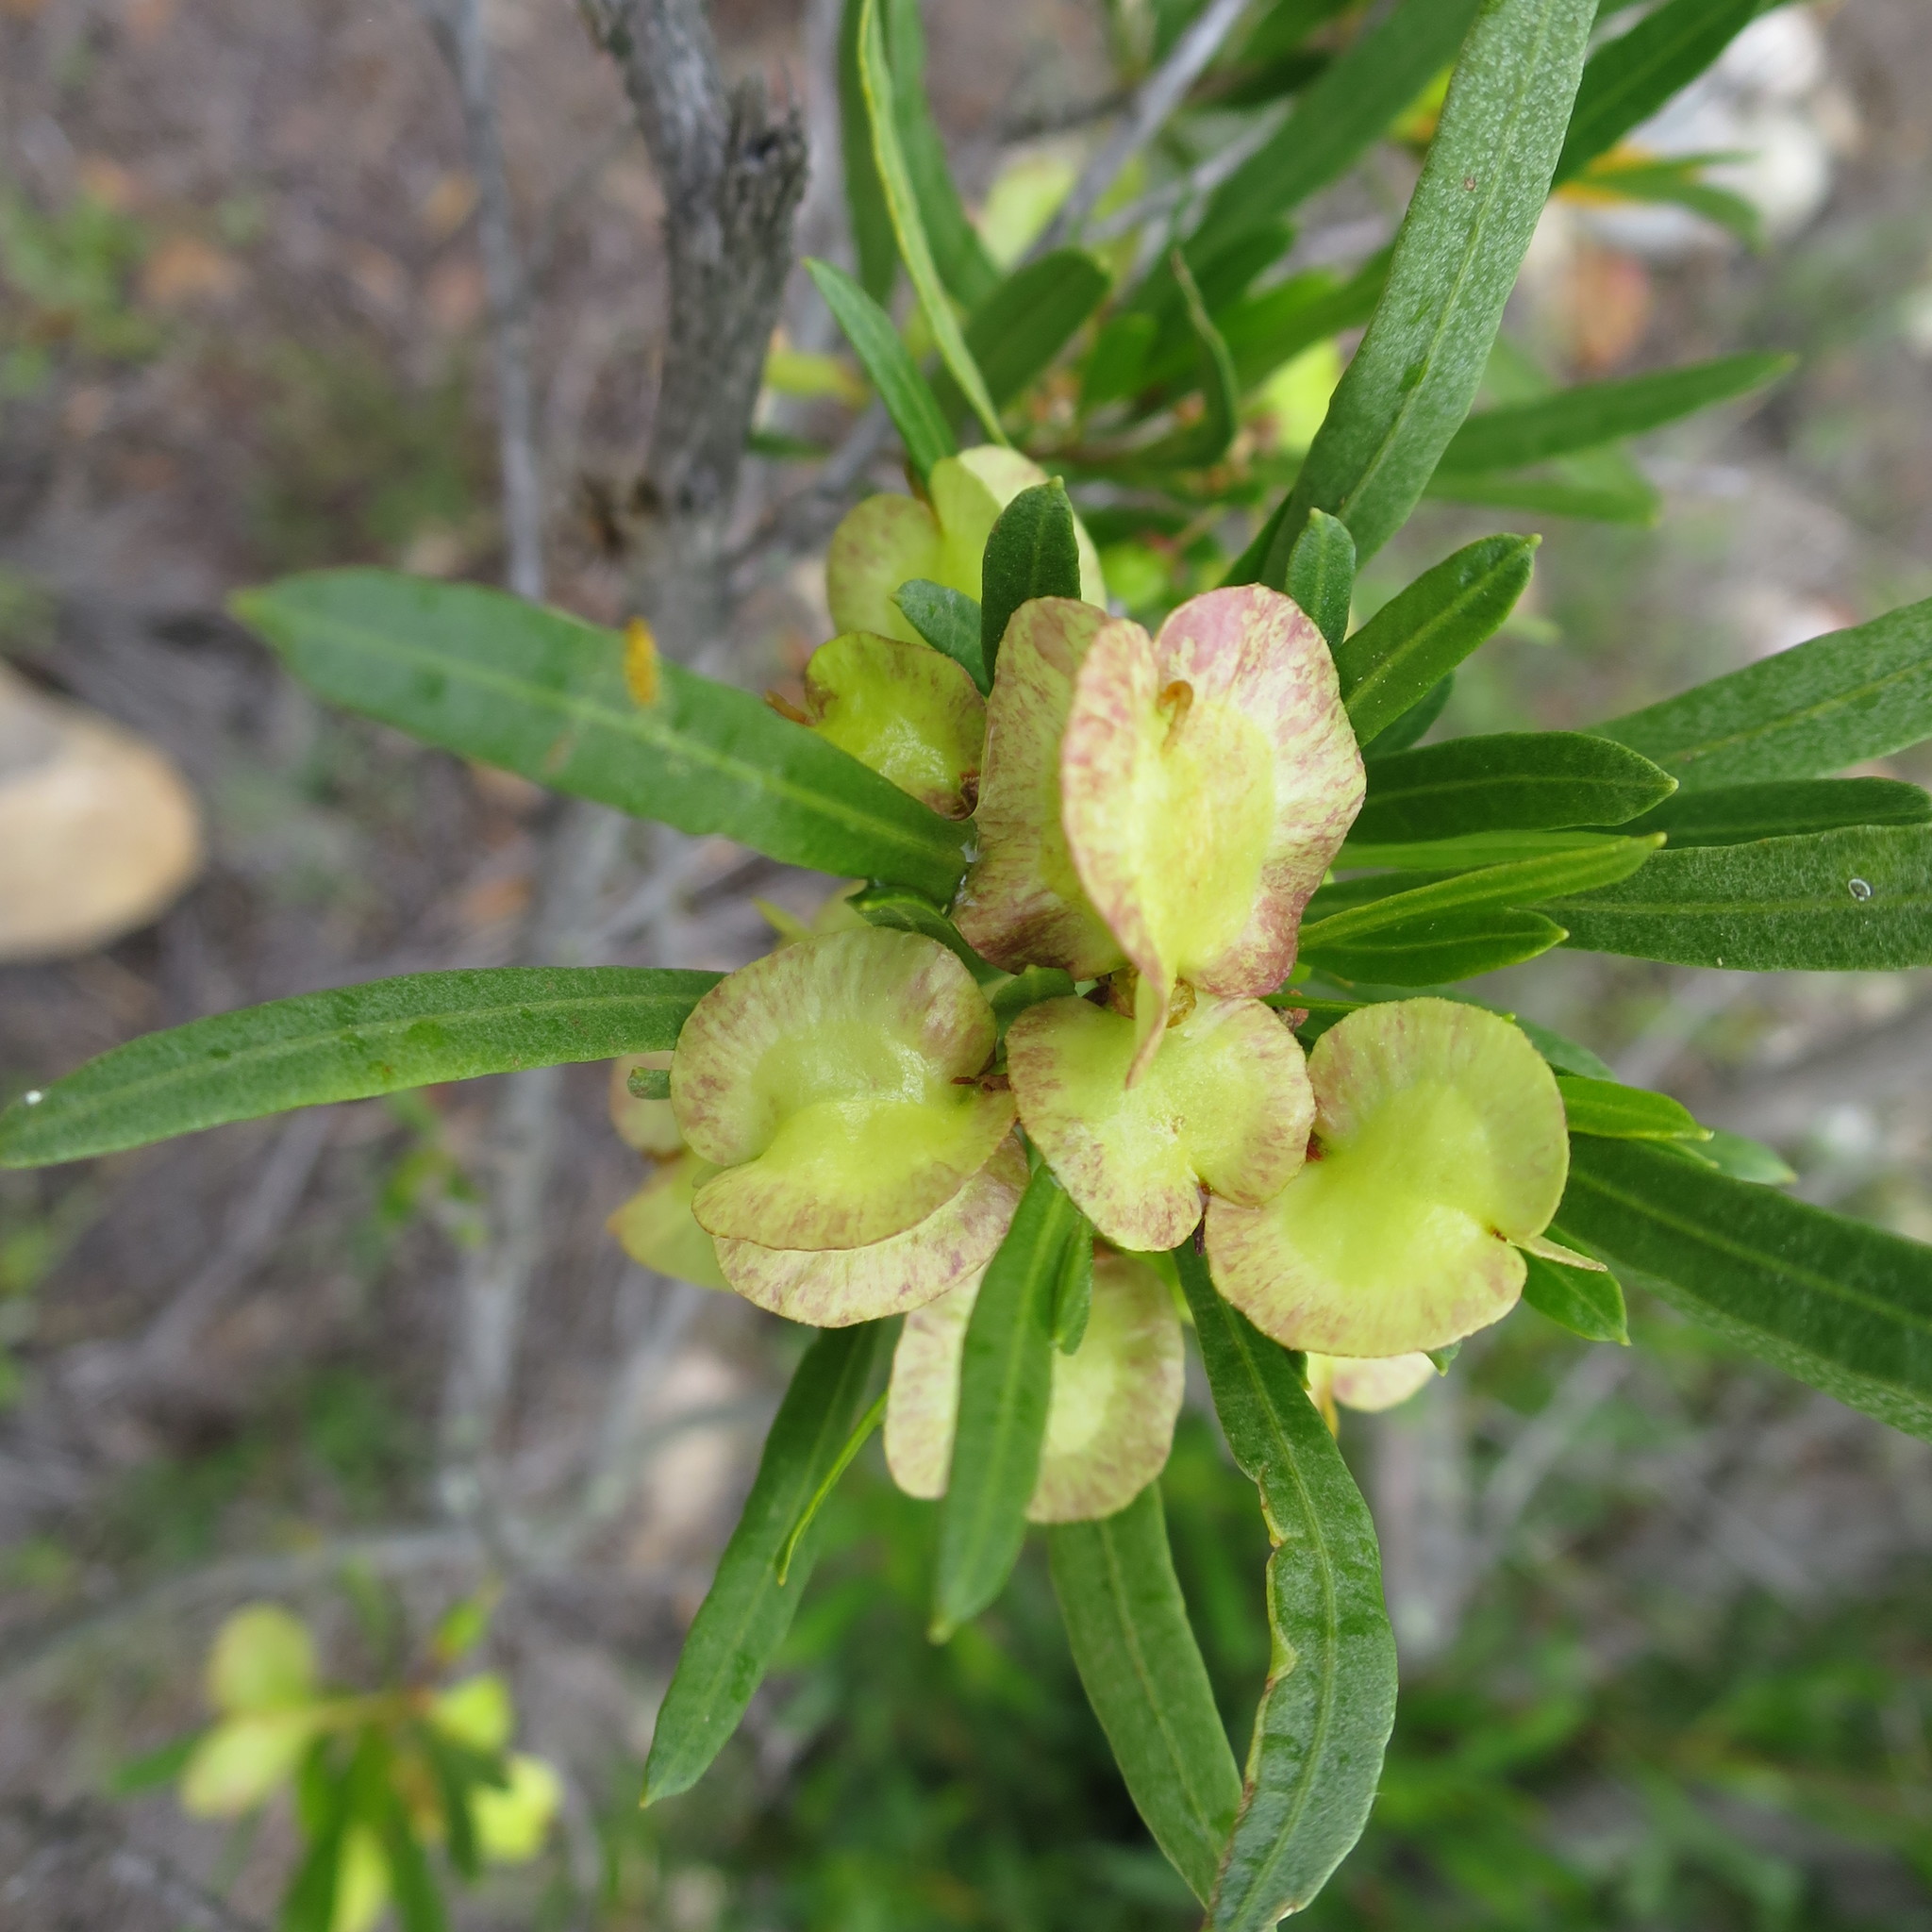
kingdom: Plantae
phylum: Tracheophyta
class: Magnoliopsida
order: Sapindales
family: Sapindaceae
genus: Dodonaea
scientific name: Dodonaea viscosa
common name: Hopbush
